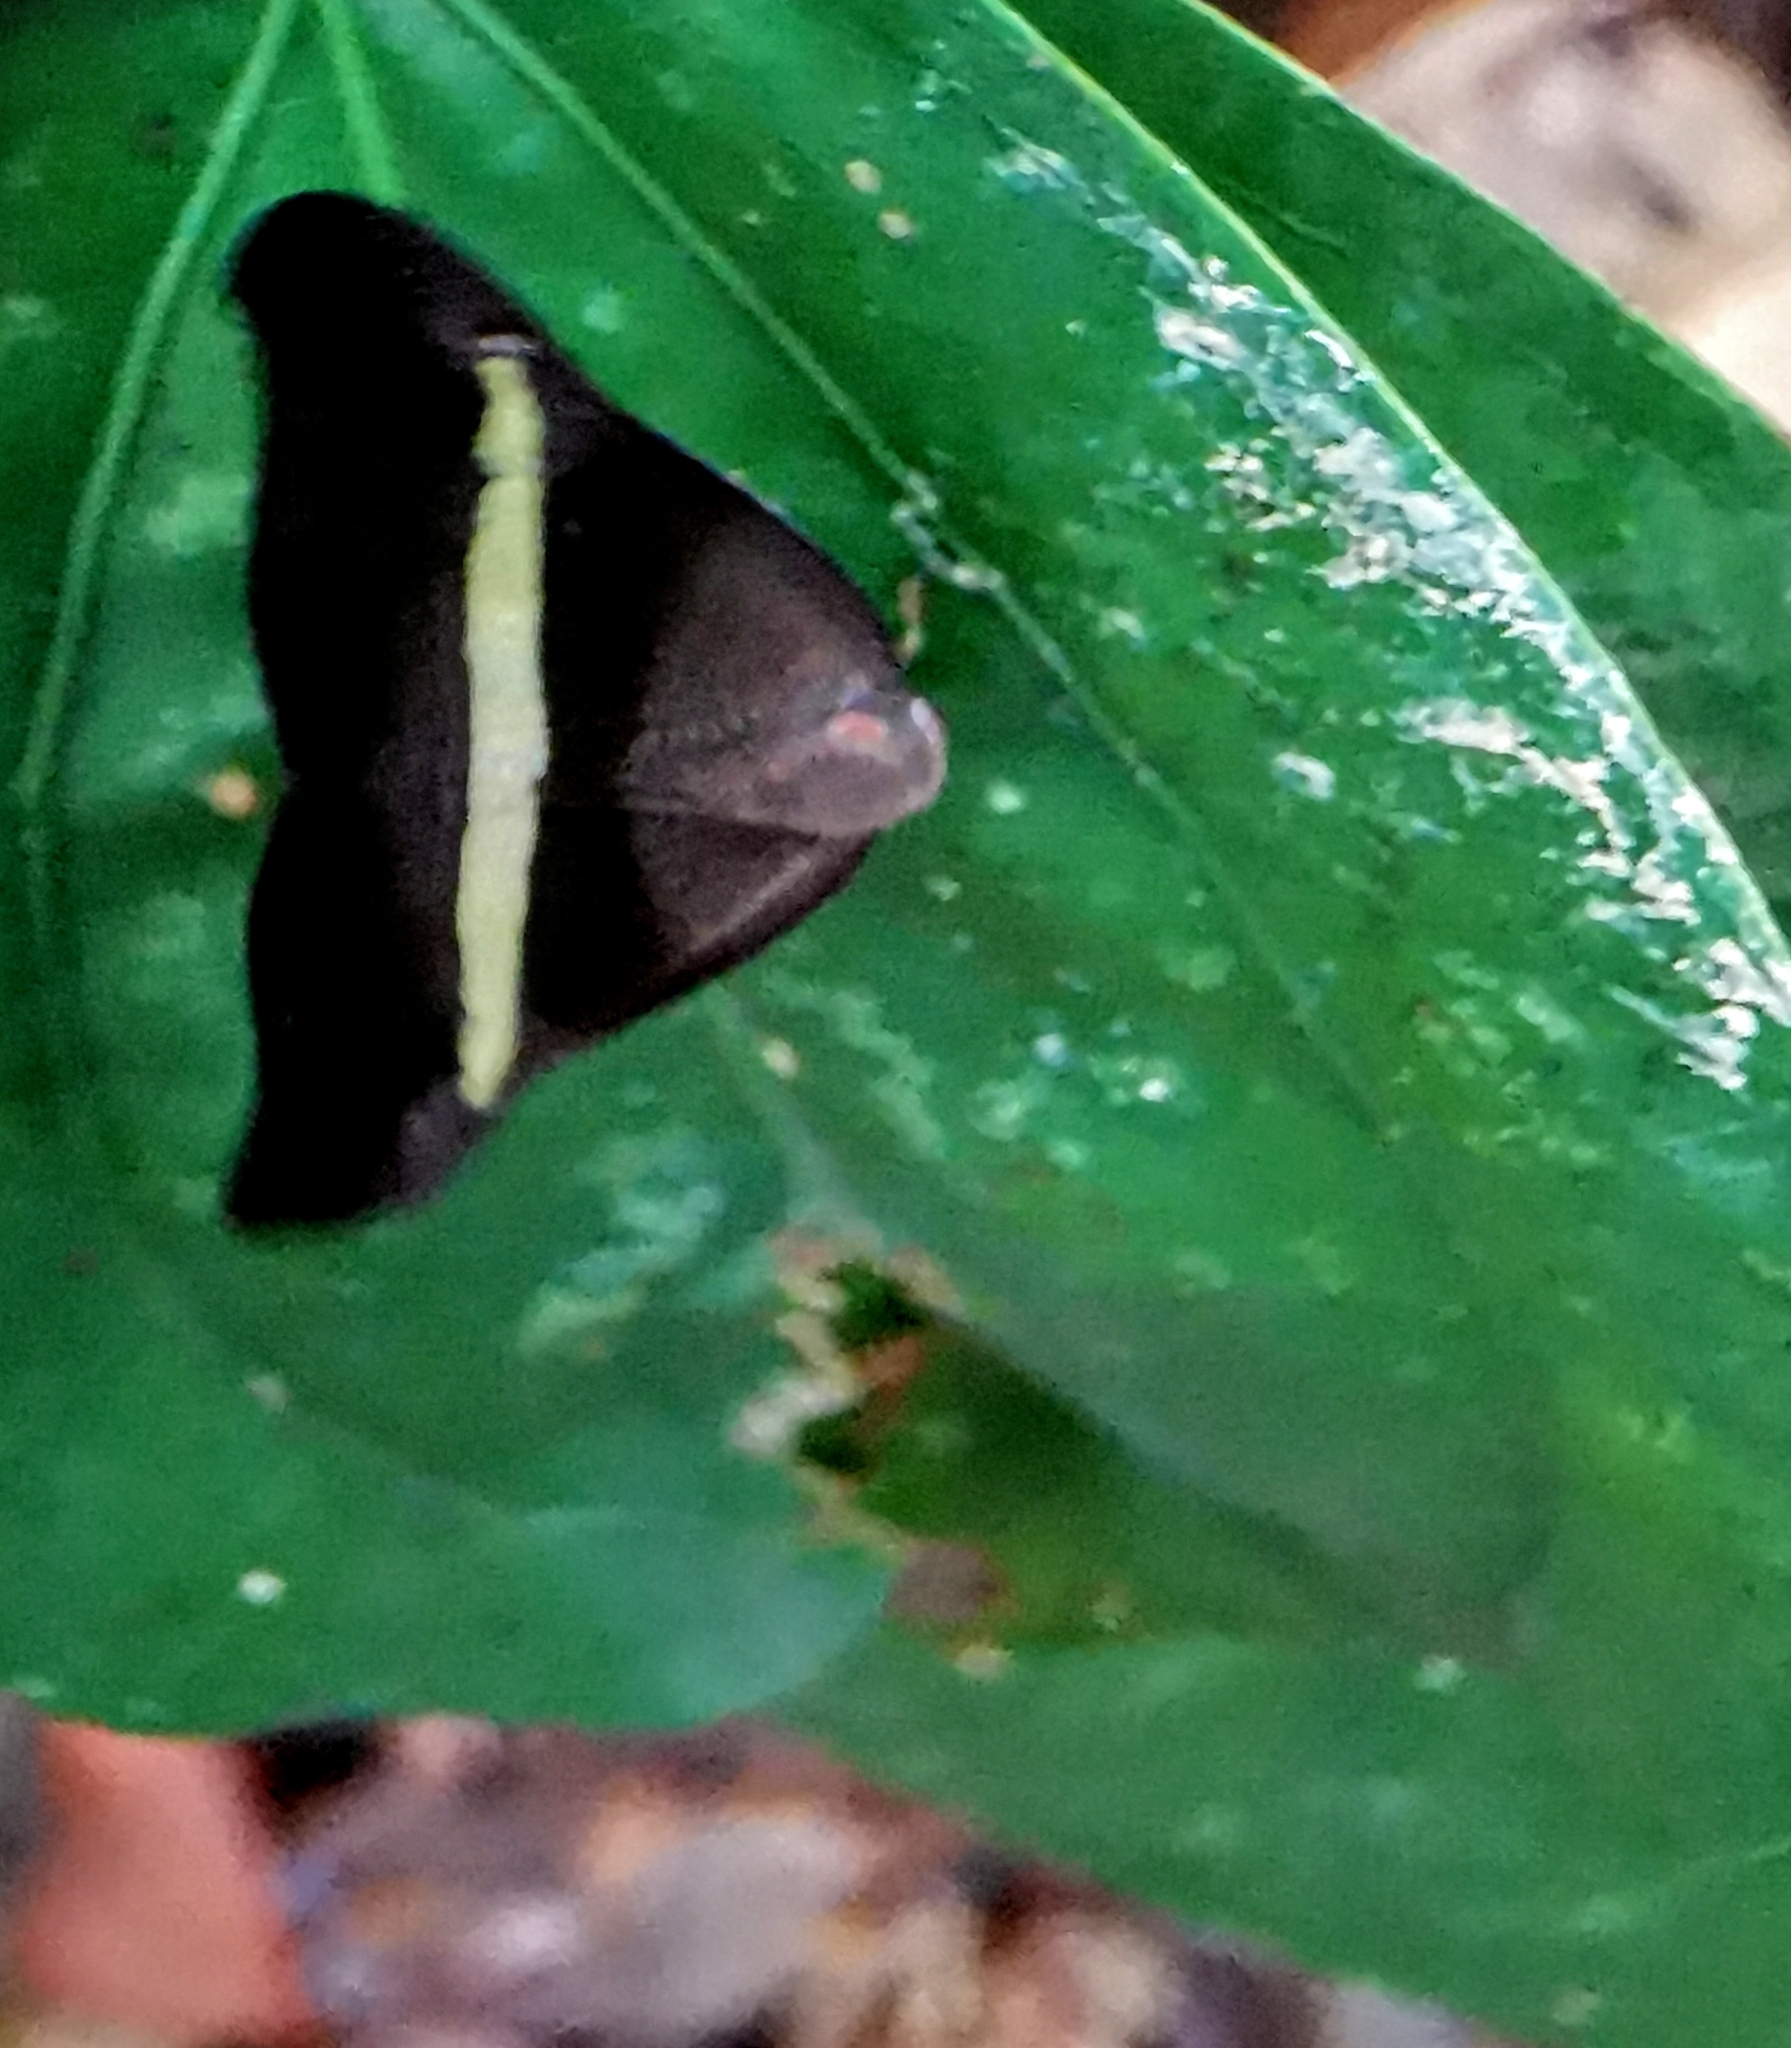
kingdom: Animalia
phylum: Arthropoda
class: Insecta
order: Hemiptera
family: Ricaniidae
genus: Pochazia
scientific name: Pochazia sinuata
